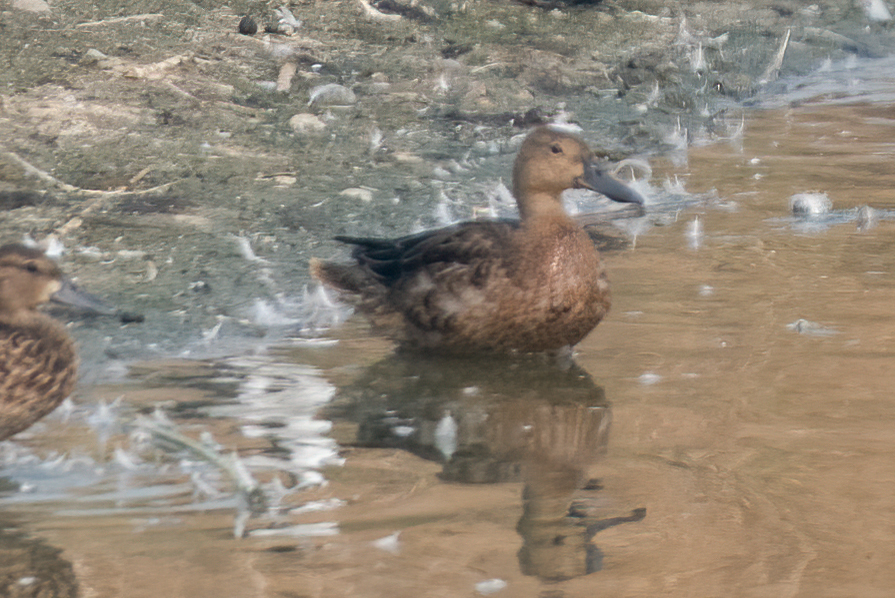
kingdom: Animalia
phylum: Chordata
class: Aves
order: Anseriformes
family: Anatidae
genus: Spatula
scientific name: Spatula cyanoptera
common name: Cinnamon teal
